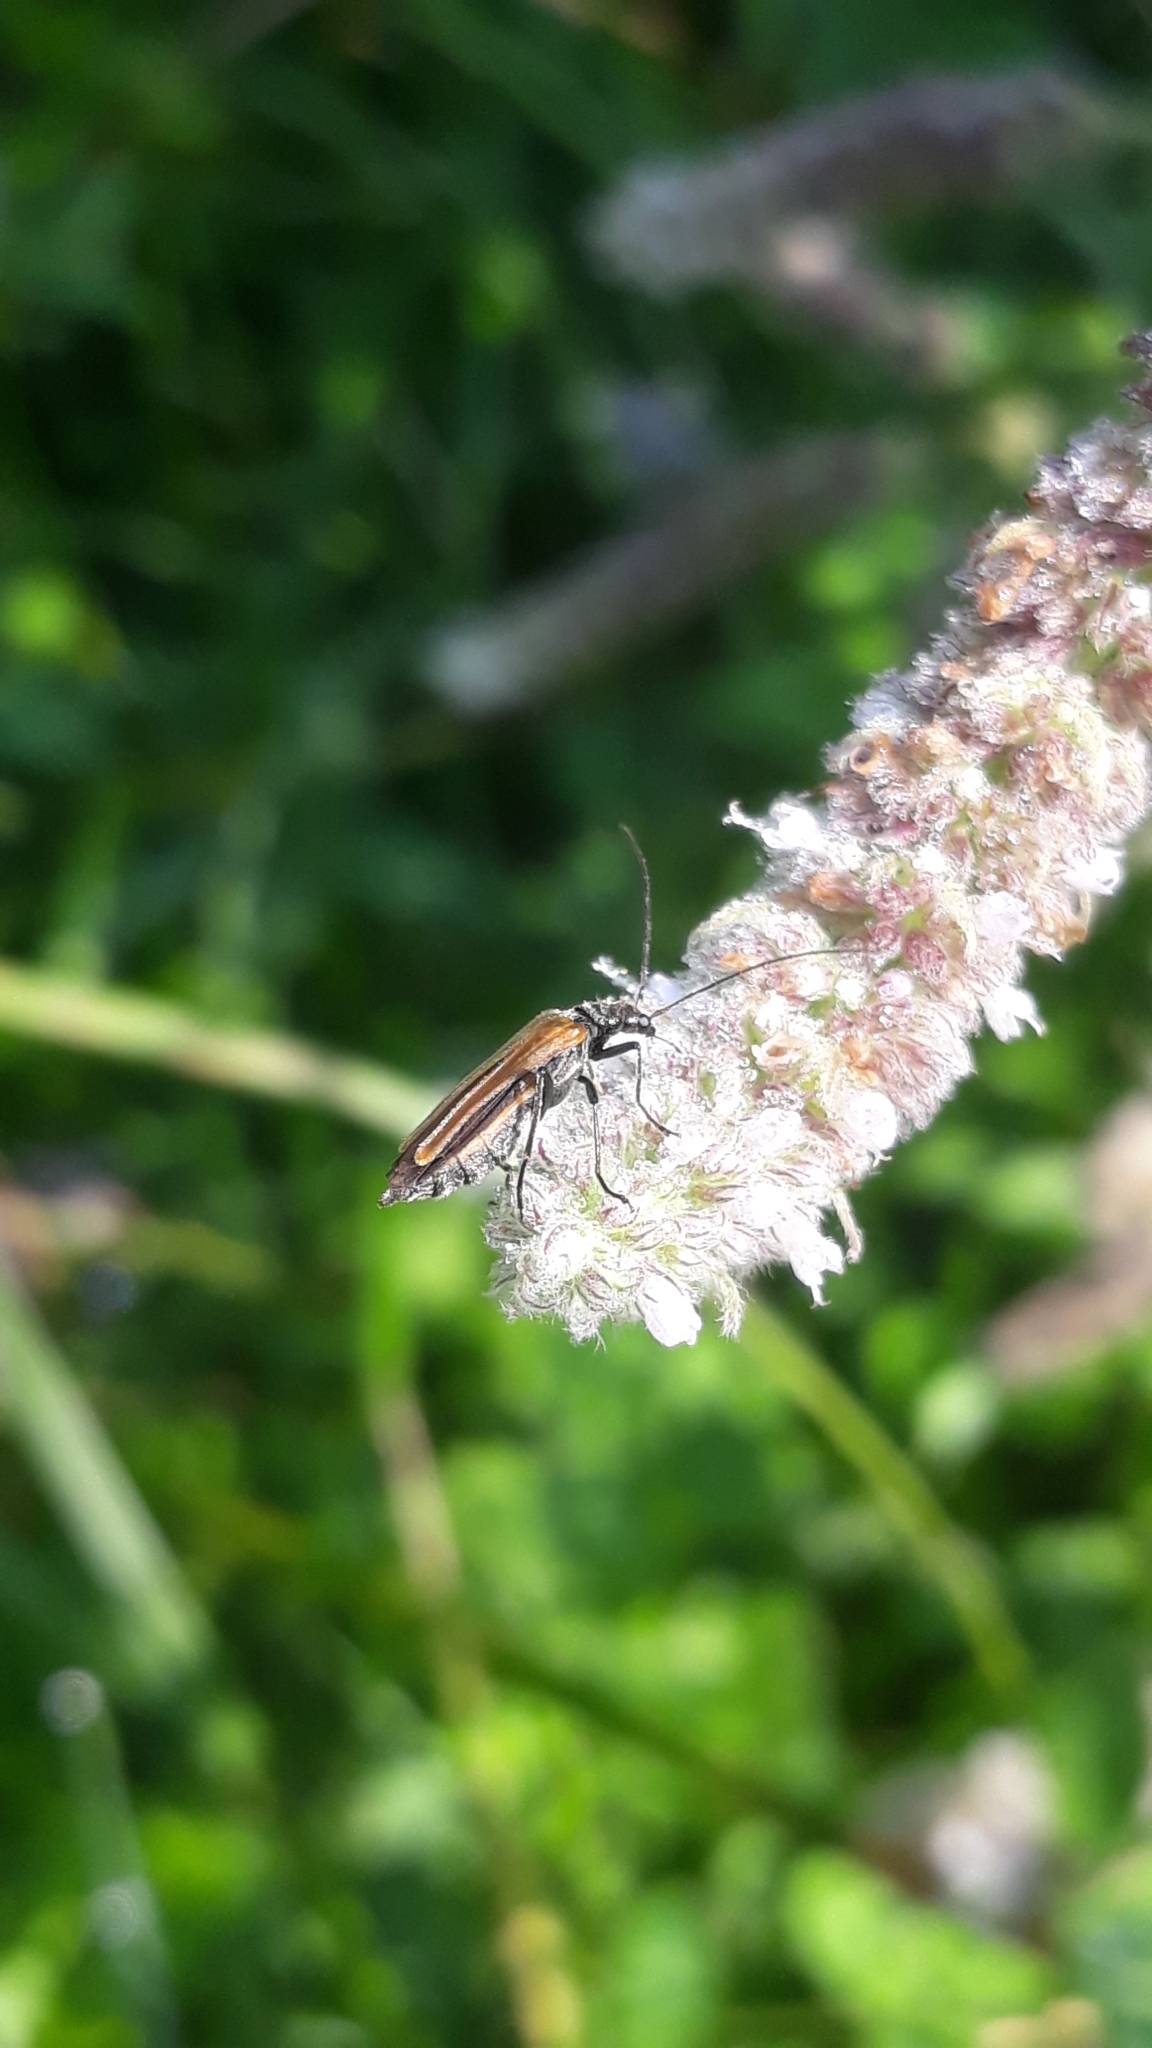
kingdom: Animalia
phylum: Arthropoda
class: Insecta
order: Coleoptera
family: Oedemeridae
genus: Oedemera
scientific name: Oedemera femorata
